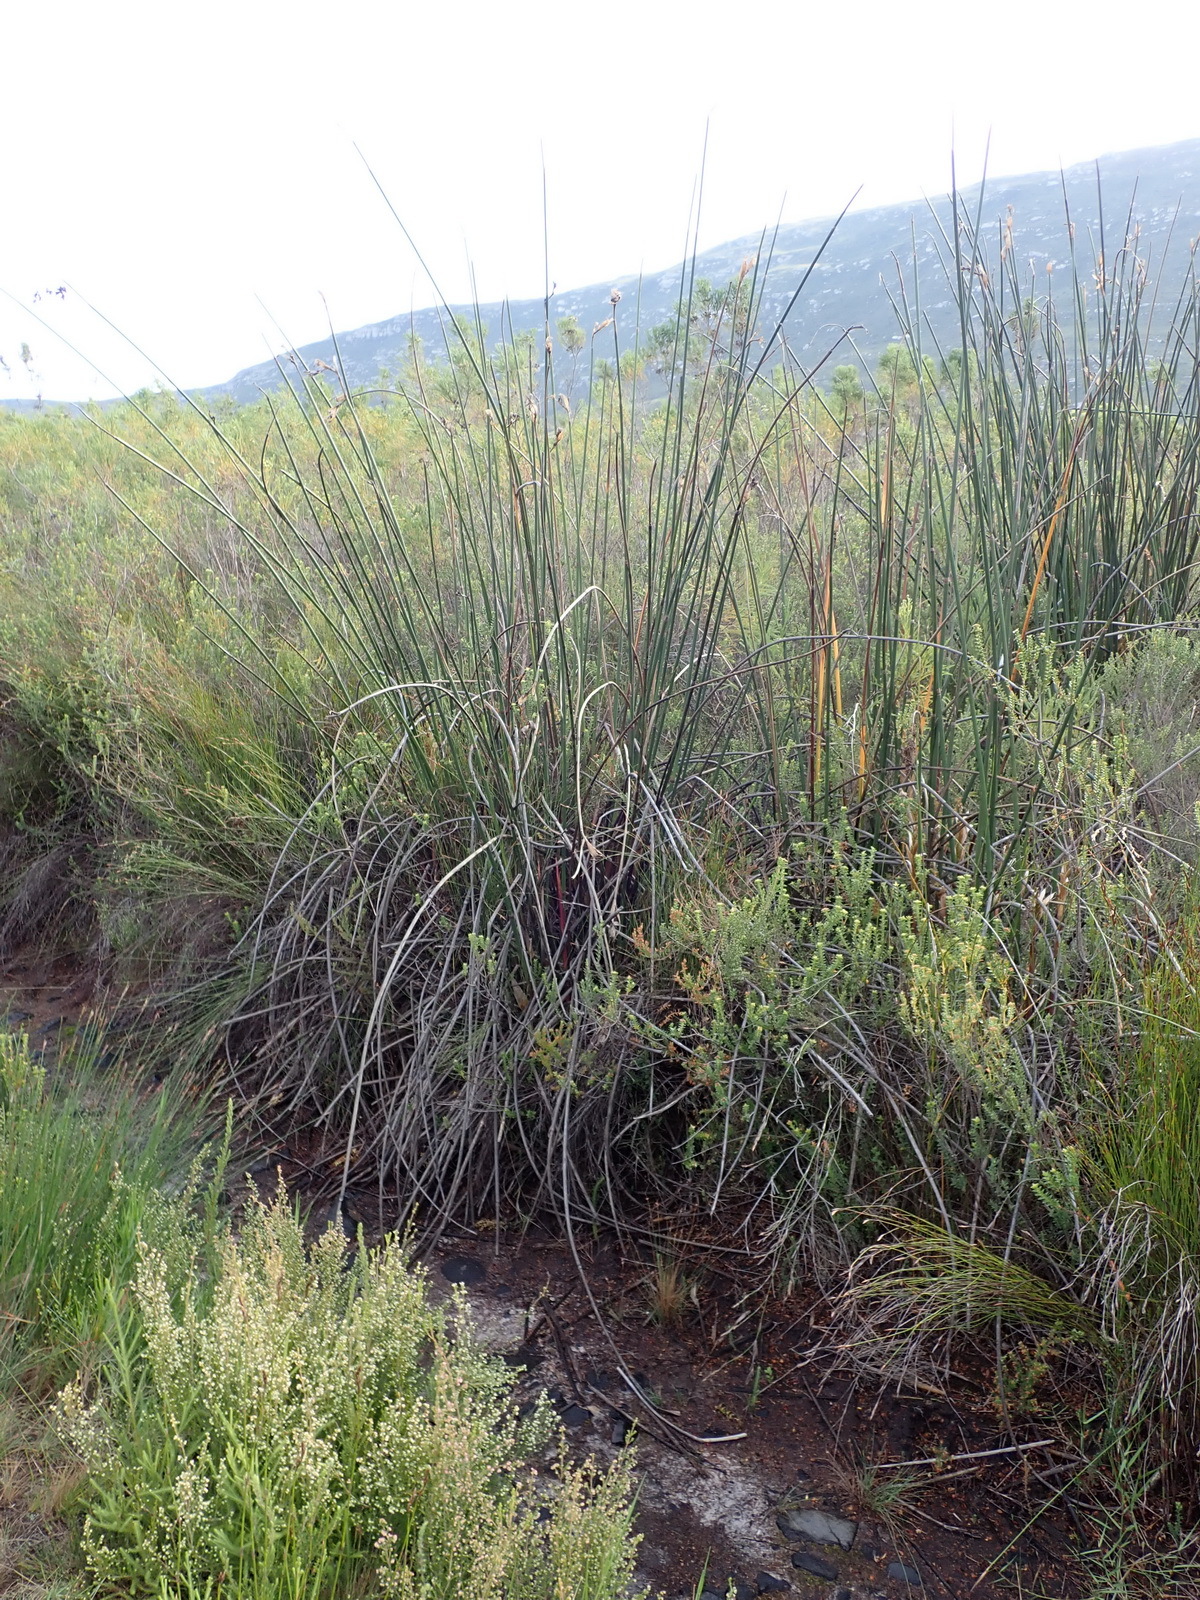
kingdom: Plantae
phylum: Tracheophyta
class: Liliopsida
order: Poales
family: Restionaceae
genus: Elegia
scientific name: Elegia mucronata
